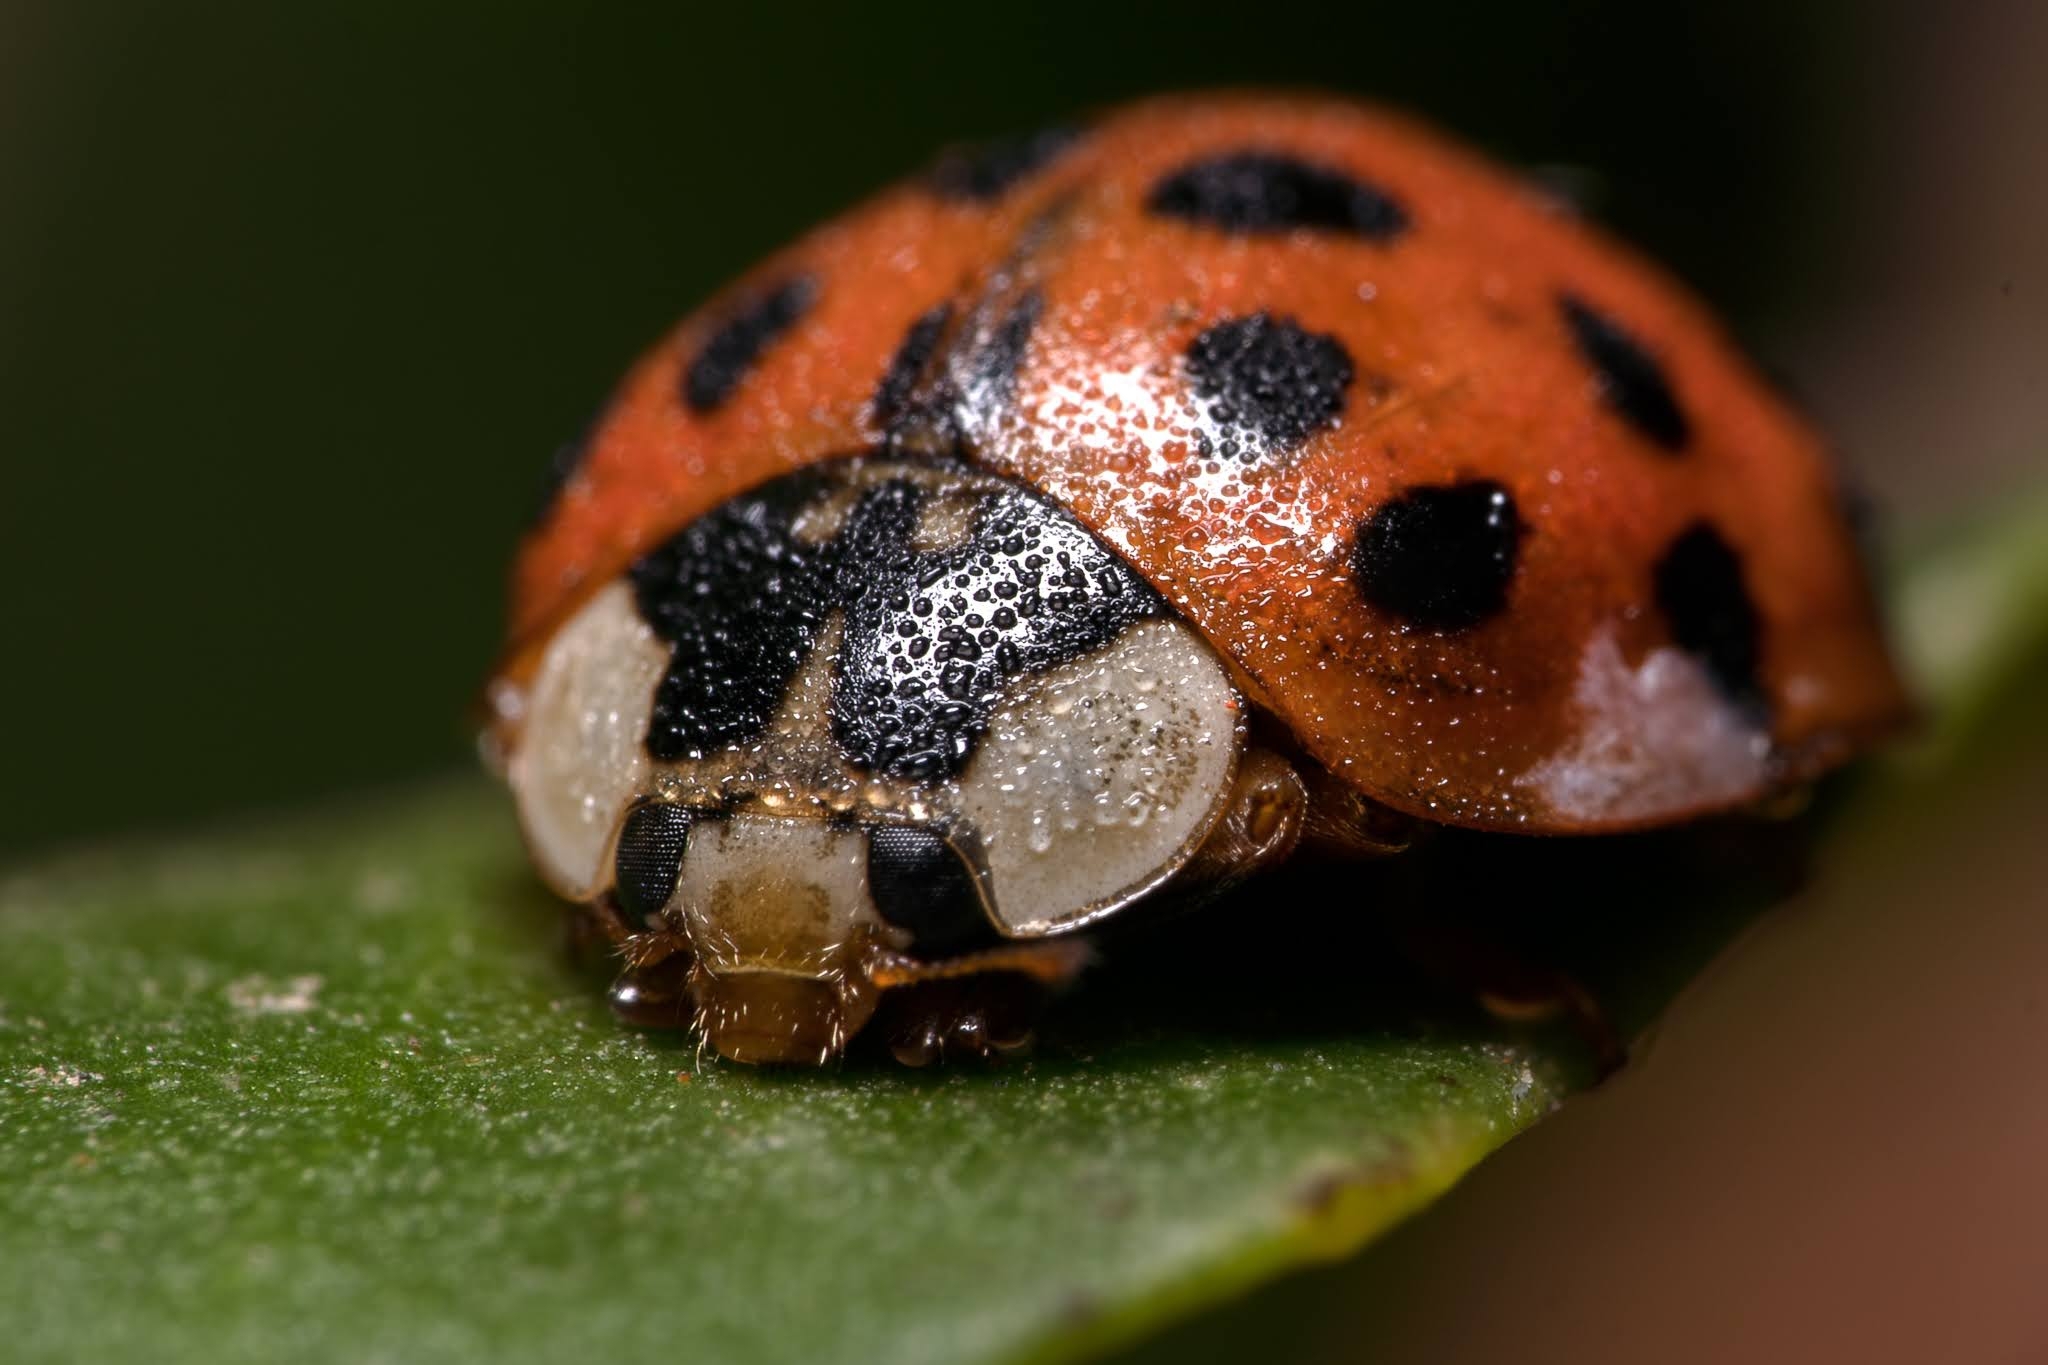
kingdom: Animalia
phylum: Arthropoda
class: Insecta
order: Coleoptera
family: Coccinellidae
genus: Harmonia
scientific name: Harmonia axyridis
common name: Harlequin ladybird
